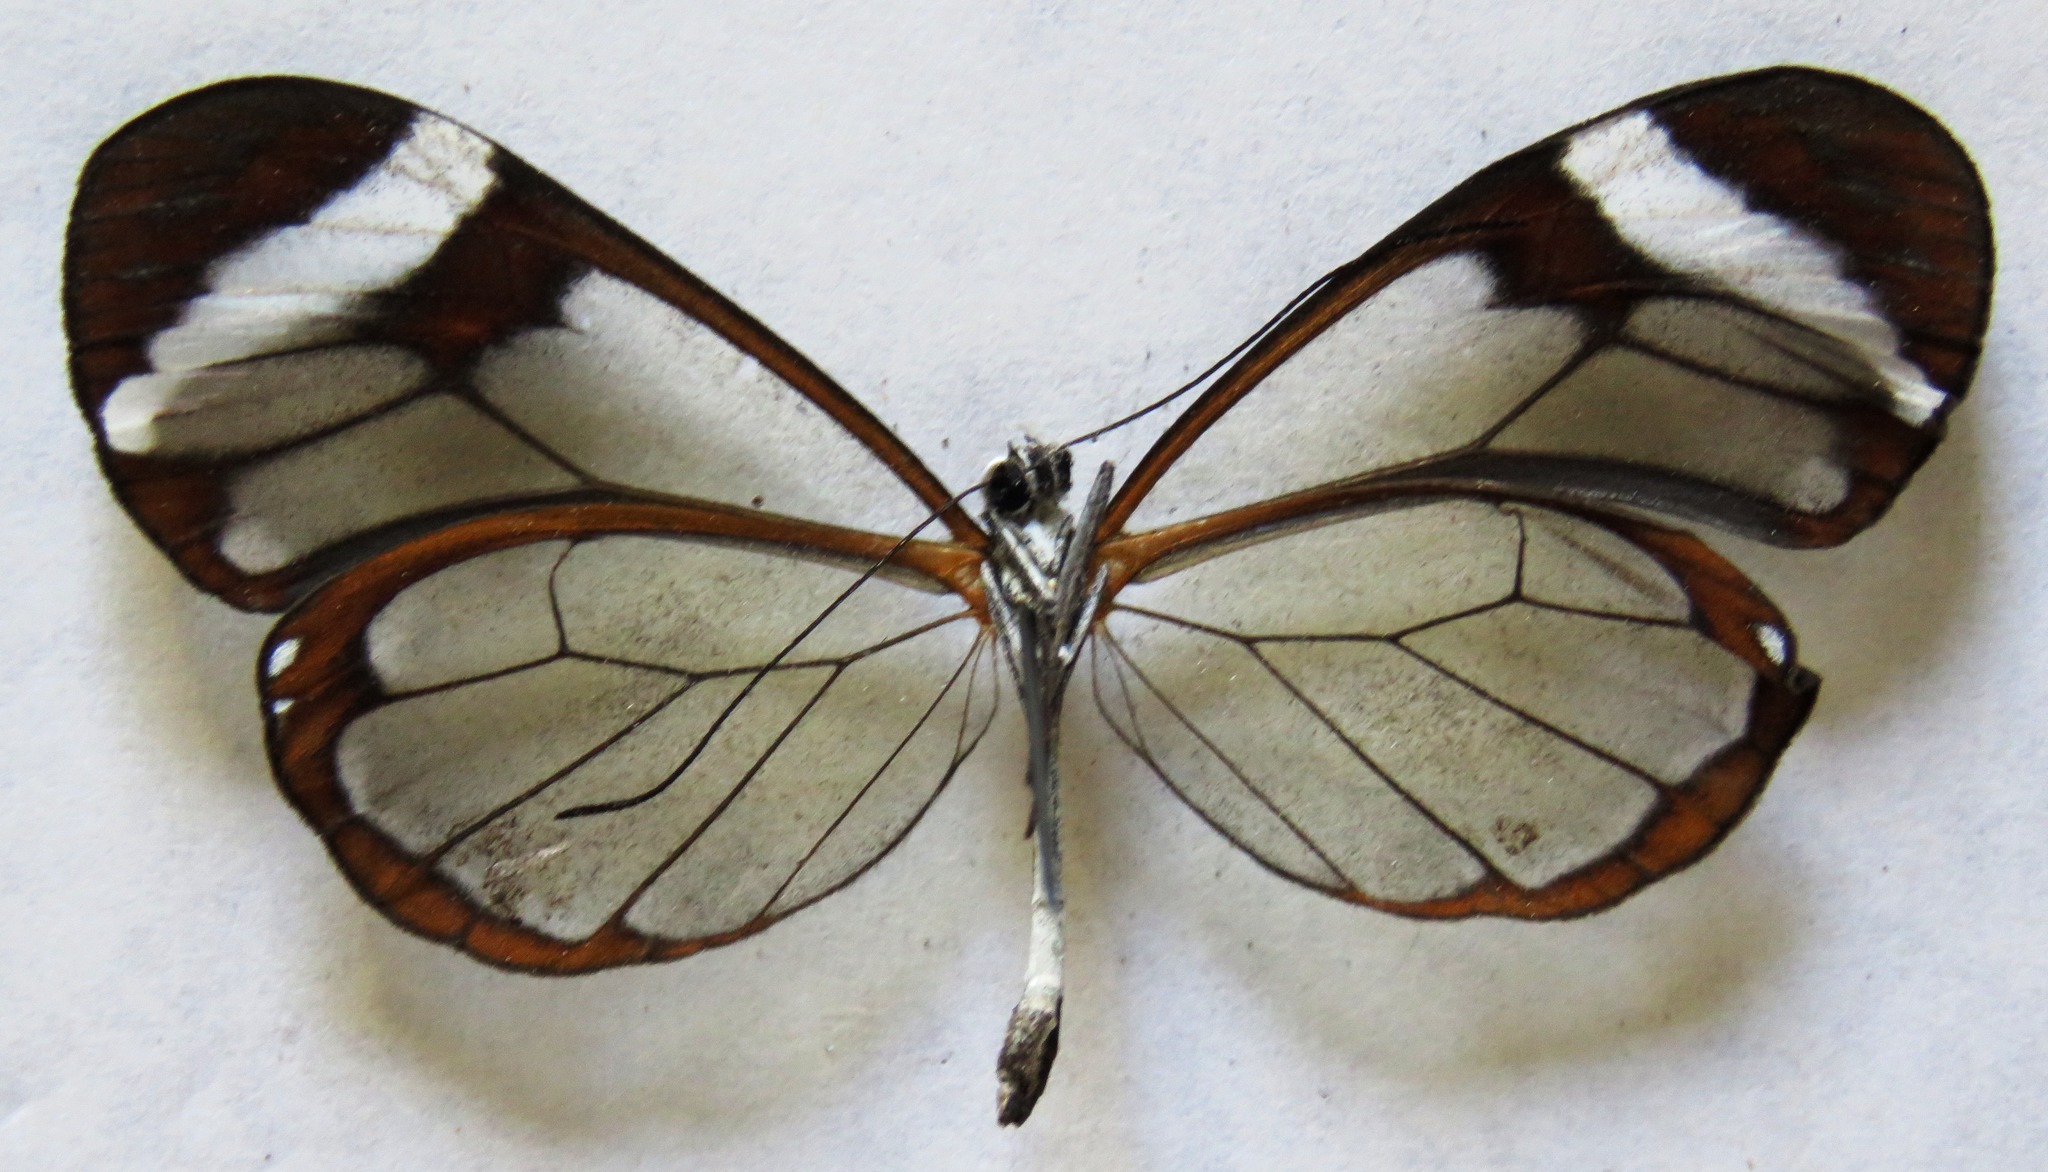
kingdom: Animalia
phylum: Arthropoda
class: Insecta
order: Lepidoptera
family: Nymphalidae
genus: Greta
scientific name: Greta morgane
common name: Thick-tipped greta
